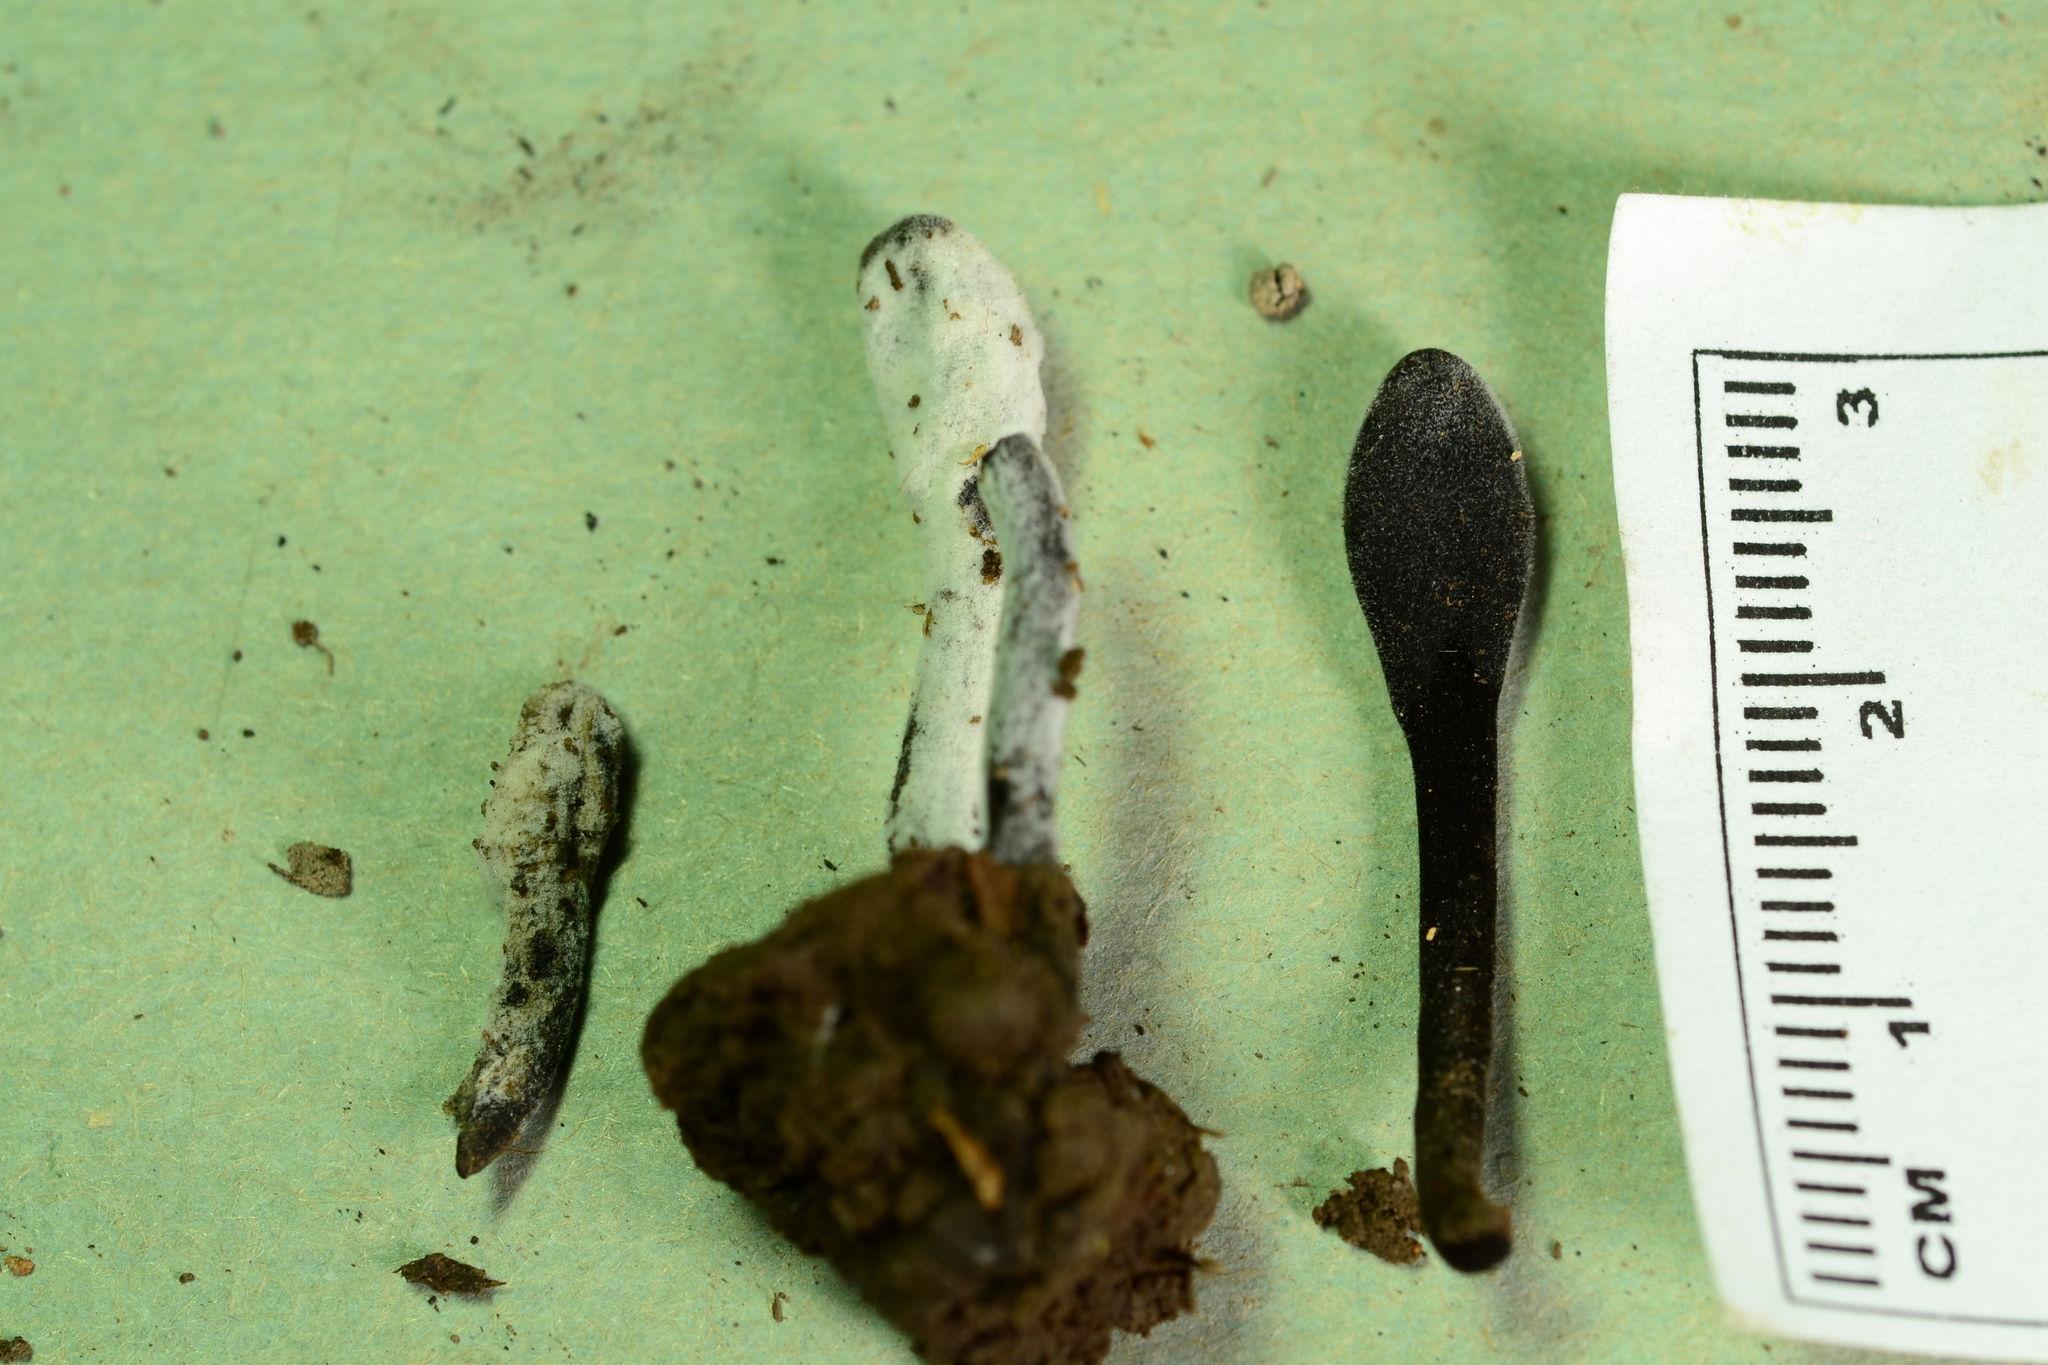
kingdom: Fungi
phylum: Ascomycota
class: Sordariomycetes
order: Hypocreales
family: Hypocreaceae
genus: Hypomyces
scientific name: Hypomyces papulasporae
